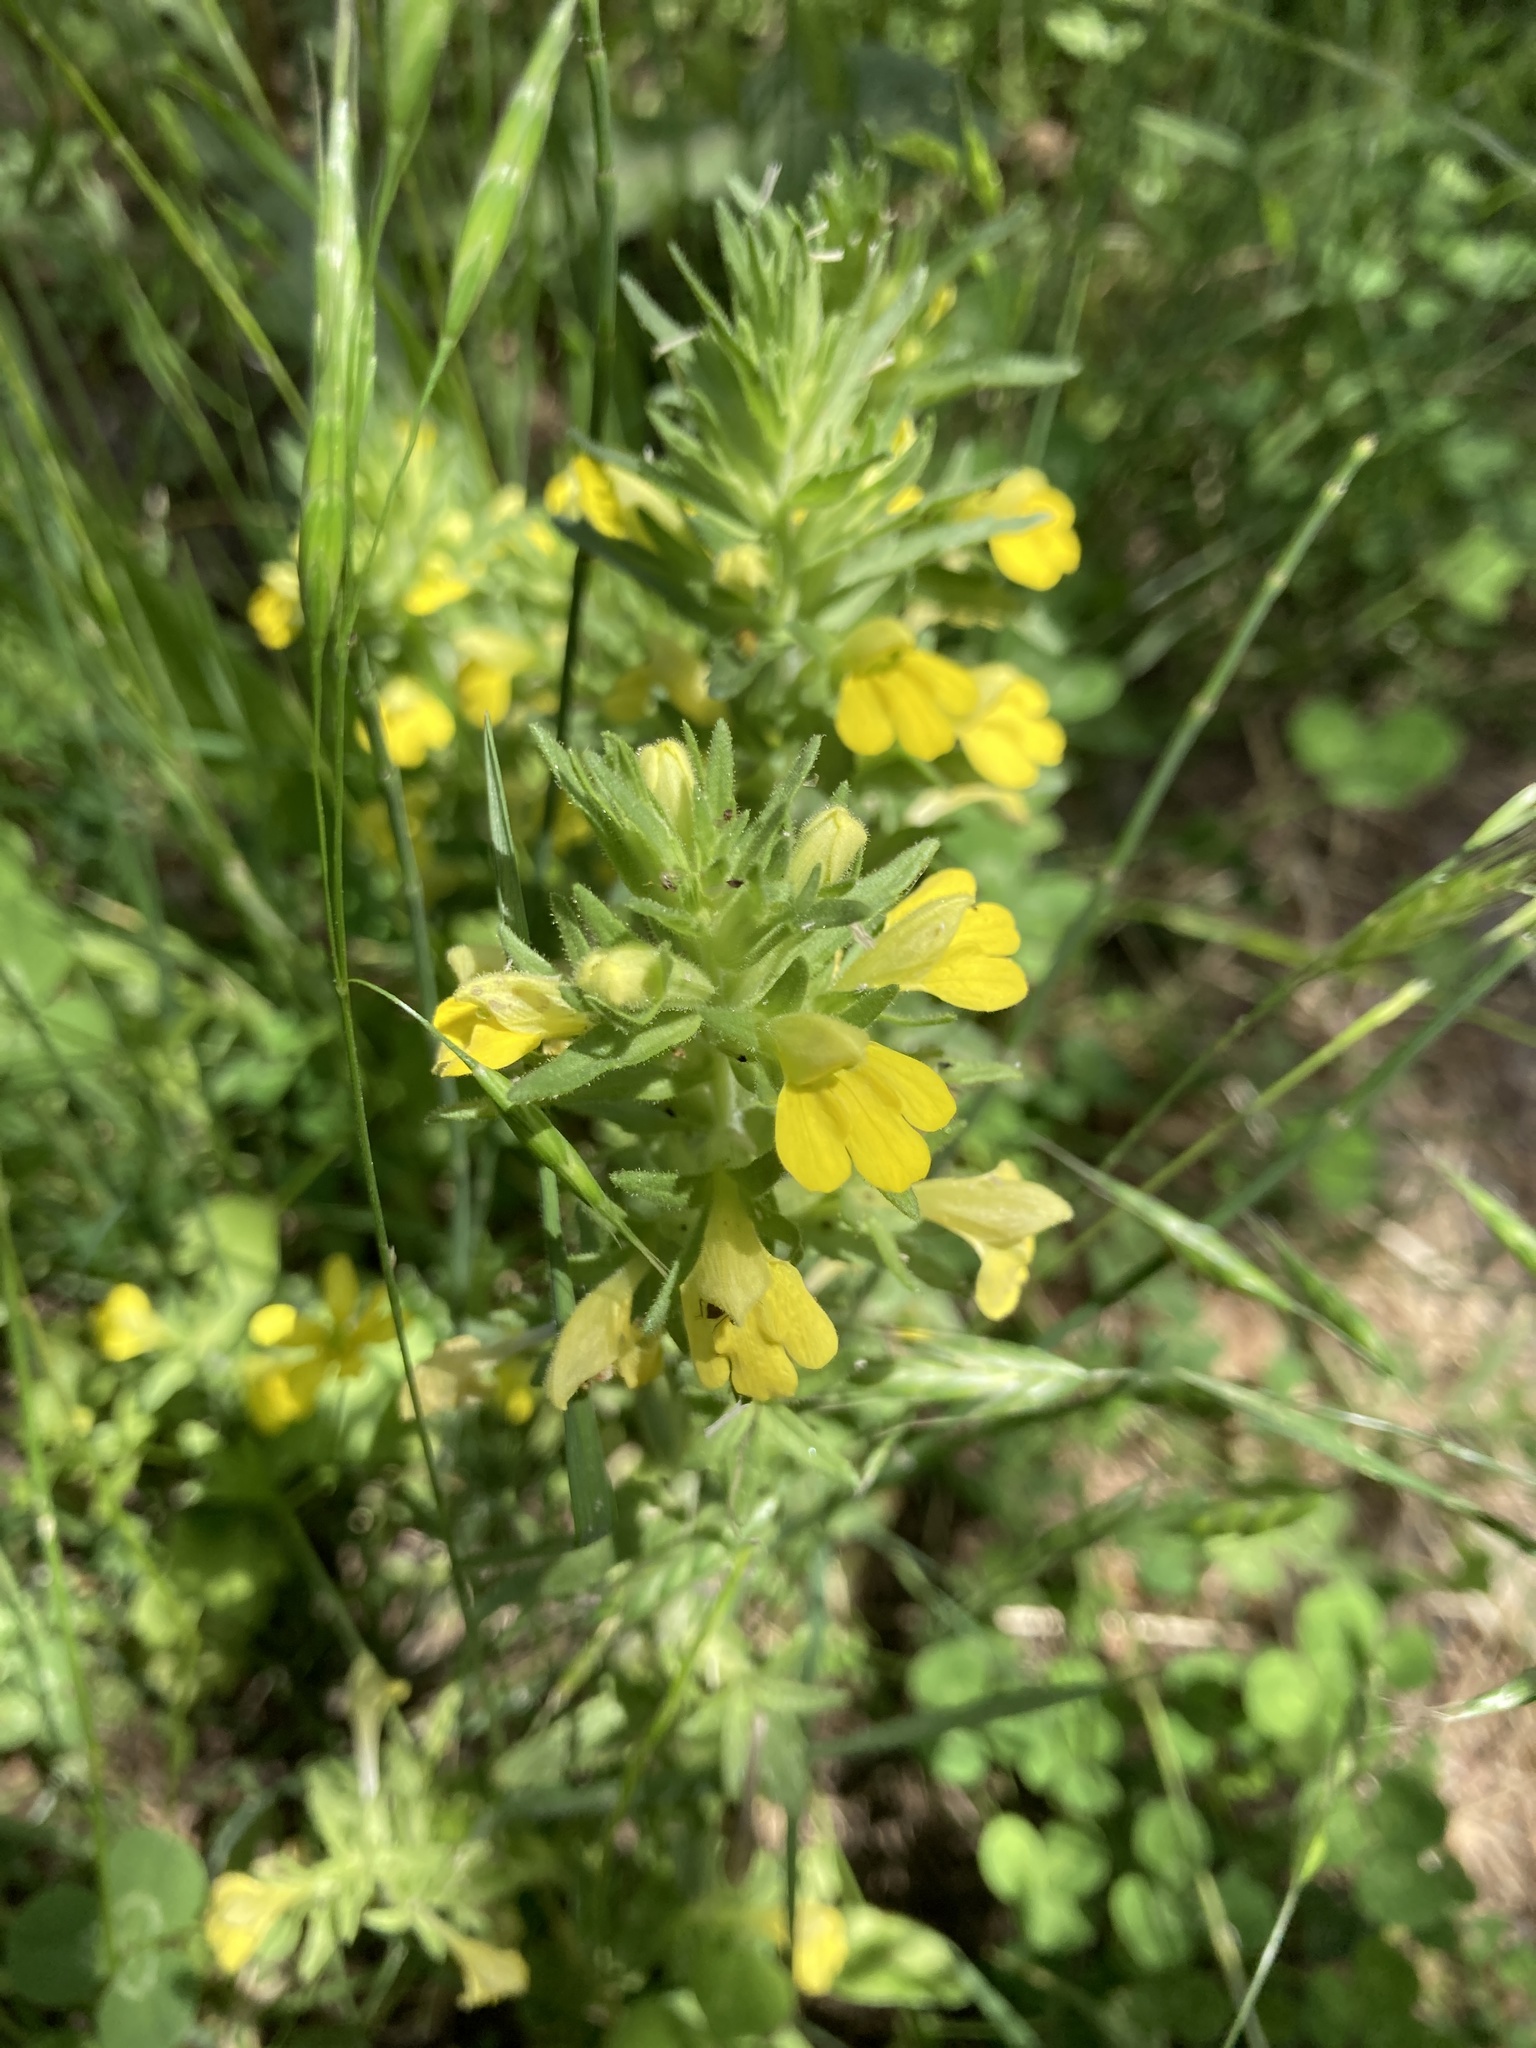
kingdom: Plantae
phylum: Tracheophyta
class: Magnoliopsida
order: Lamiales
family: Orobanchaceae
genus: Bellardia
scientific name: Bellardia viscosa
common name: Sticky parentucellia
